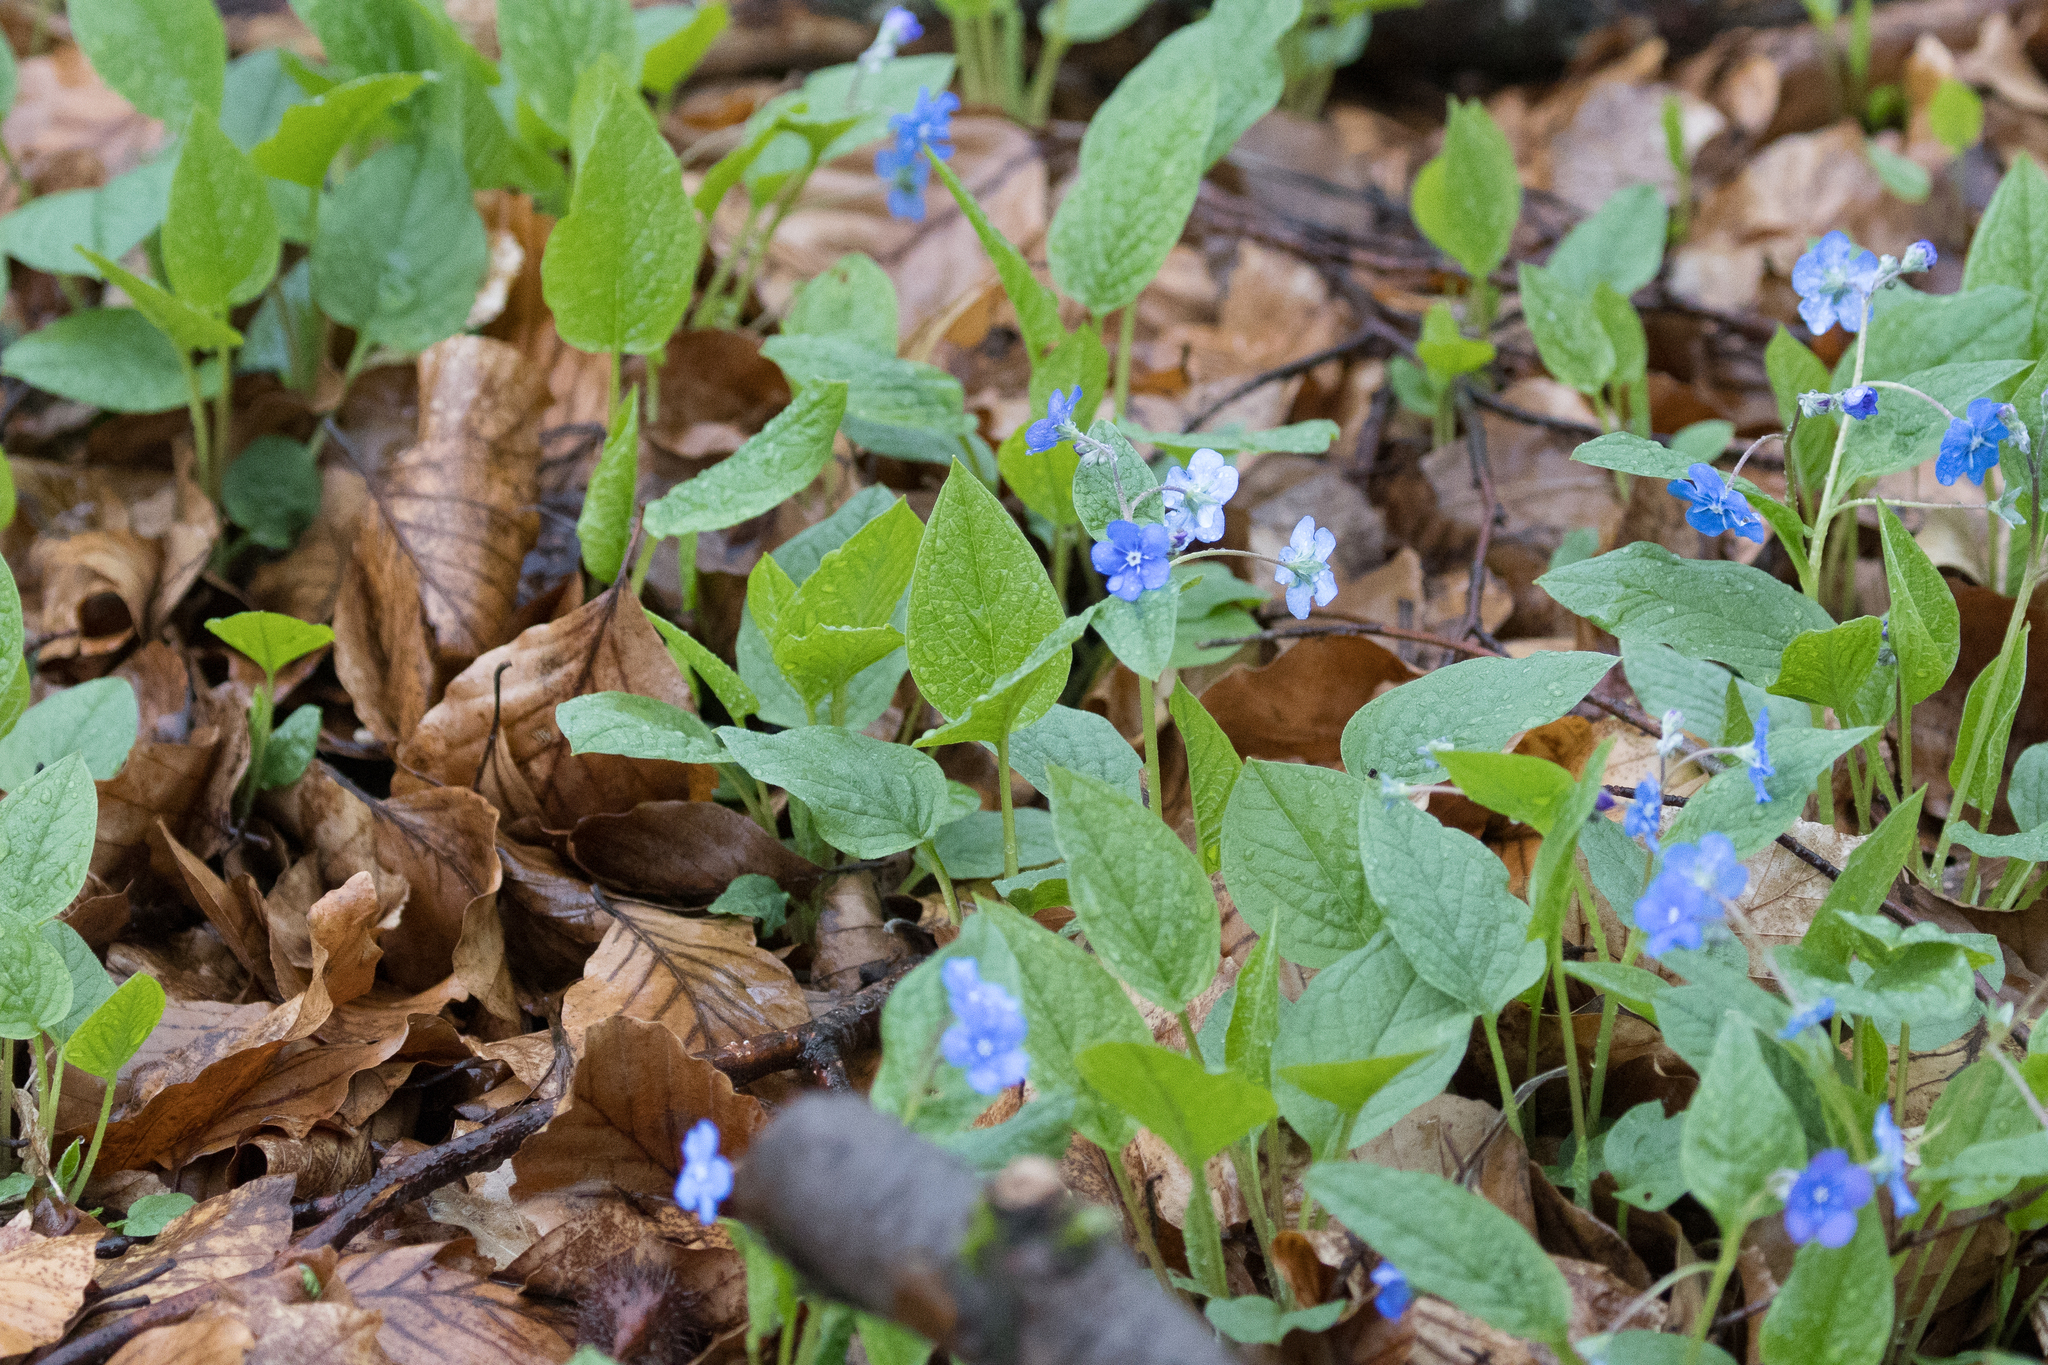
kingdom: Plantae
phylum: Tracheophyta
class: Magnoliopsida
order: Boraginales
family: Boraginaceae
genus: Omphalodes
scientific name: Omphalodes verna
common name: Blue-eyed-mary
